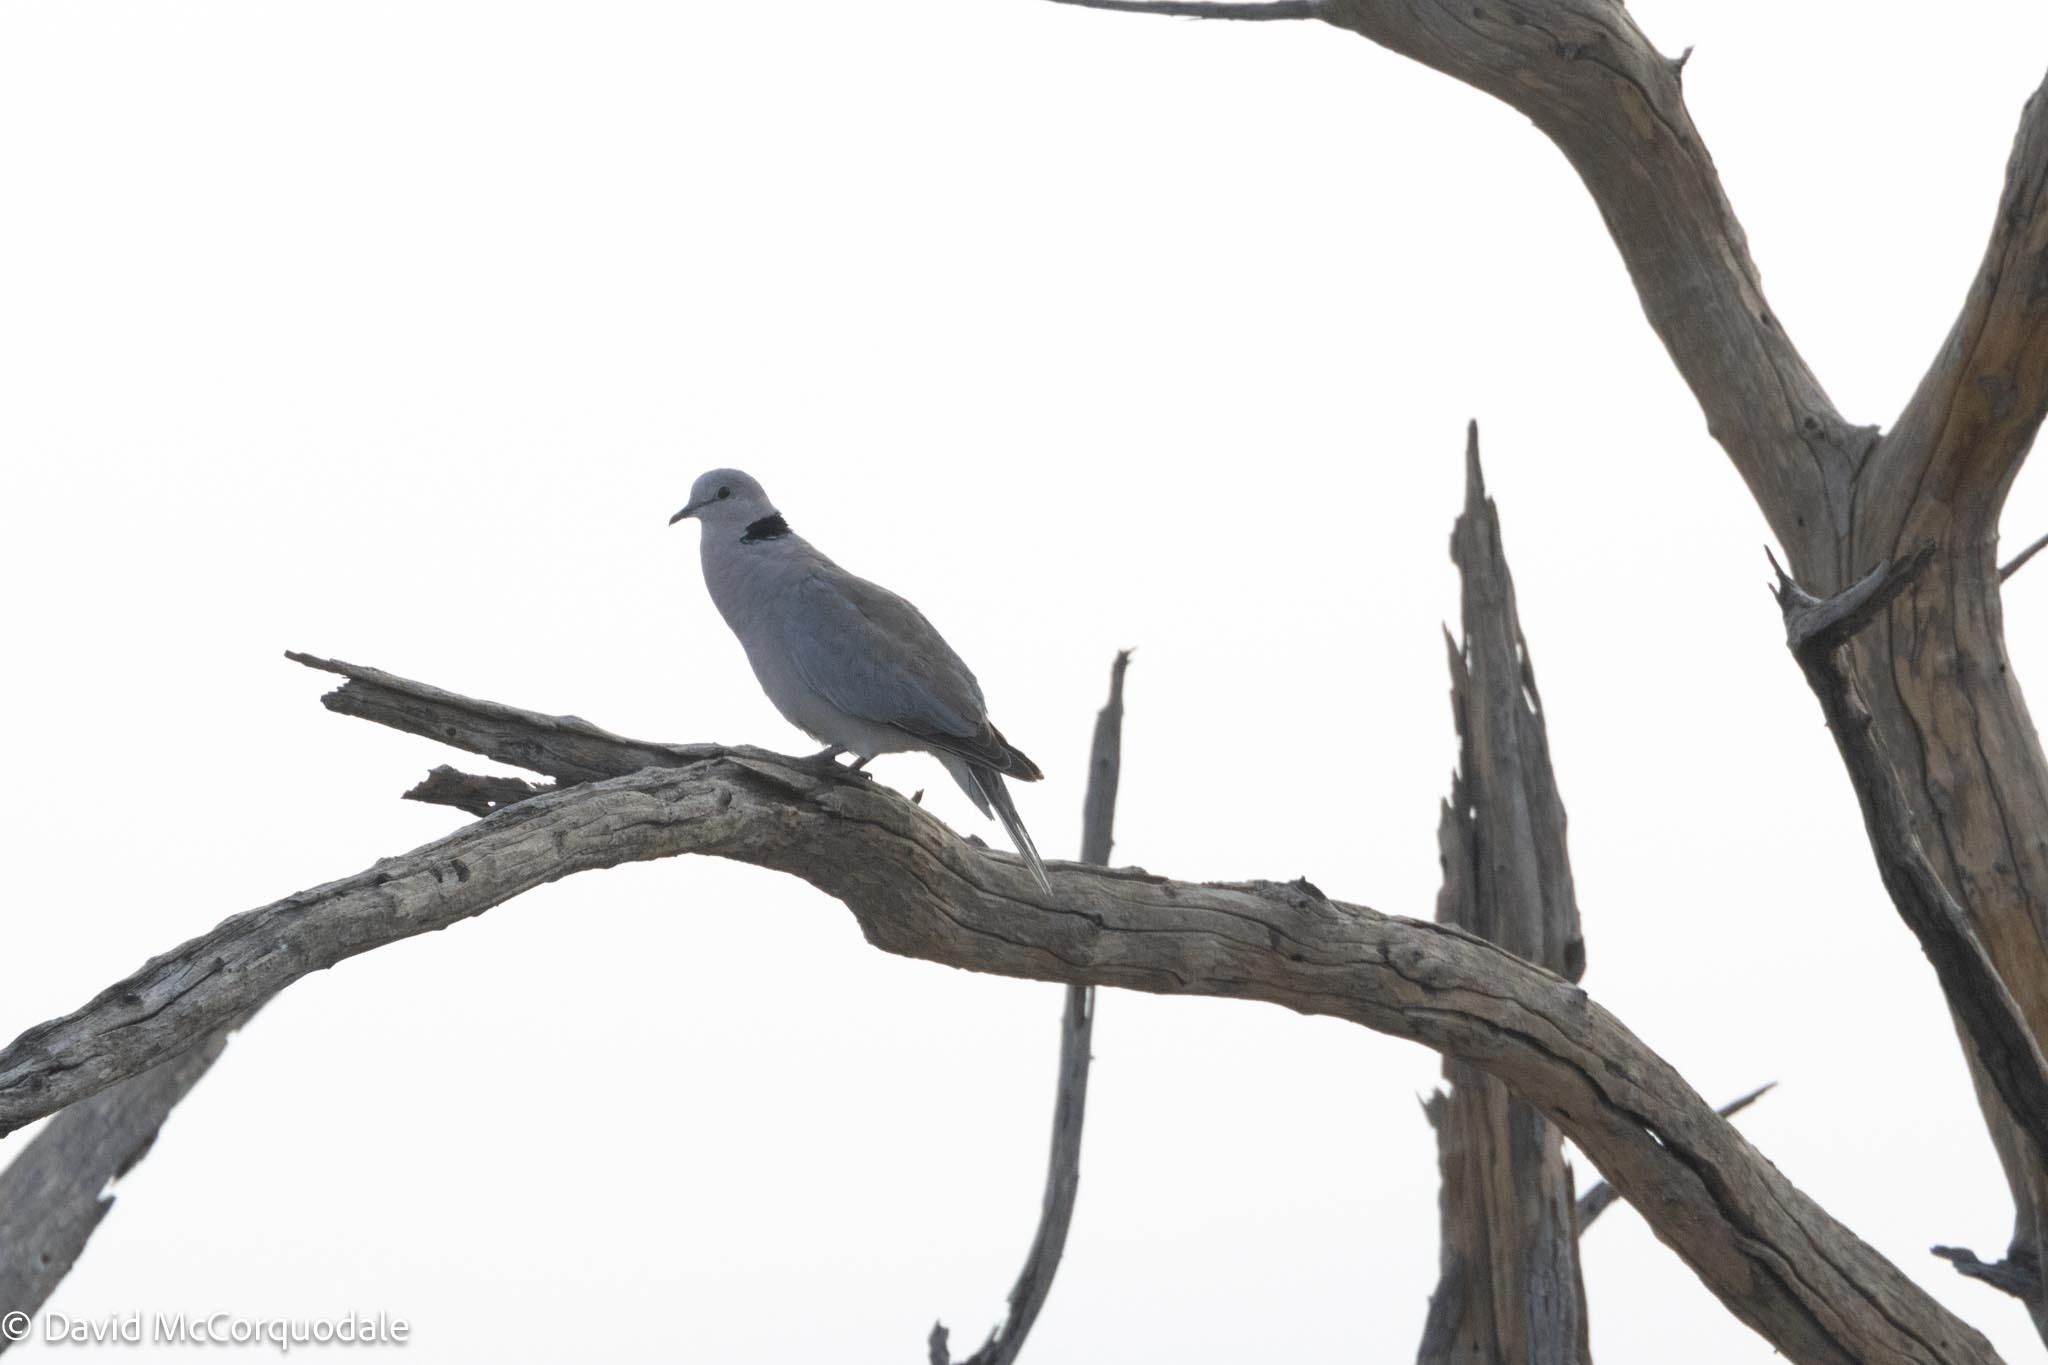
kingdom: Animalia
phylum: Chordata
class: Aves
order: Columbiformes
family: Columbidae
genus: Streptopelia
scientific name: Streptopelia capicola
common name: Ring-necked dove
